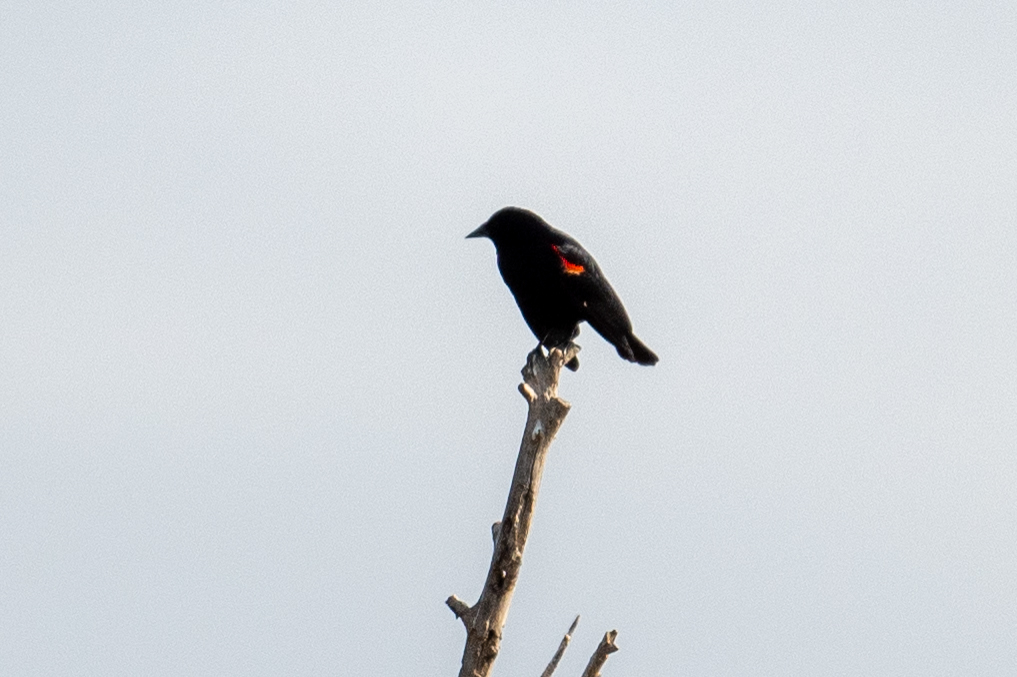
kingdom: Animalia
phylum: Chordata
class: Aves
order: Passeriformes
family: Icteridae
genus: Agelaius
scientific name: Agelaius phoeniceus
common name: Red-winged blackbird
